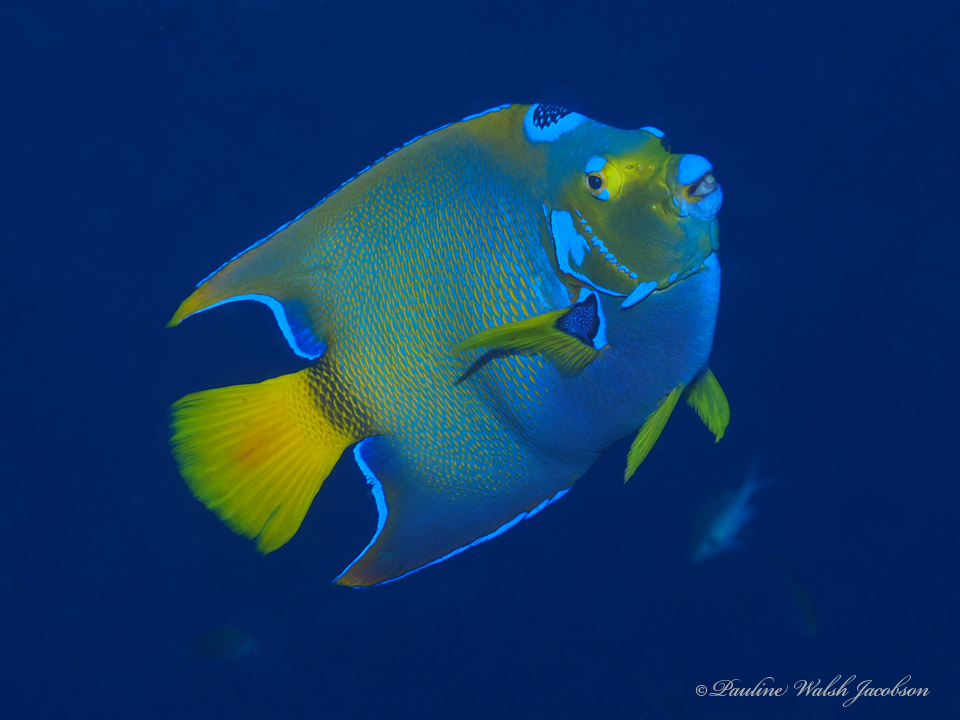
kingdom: Animalia
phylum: Chordata
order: Perciformes
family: Pomacanthidae
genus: Holacanthus
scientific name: Holacanthus ciliaris
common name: Queen angelfish
